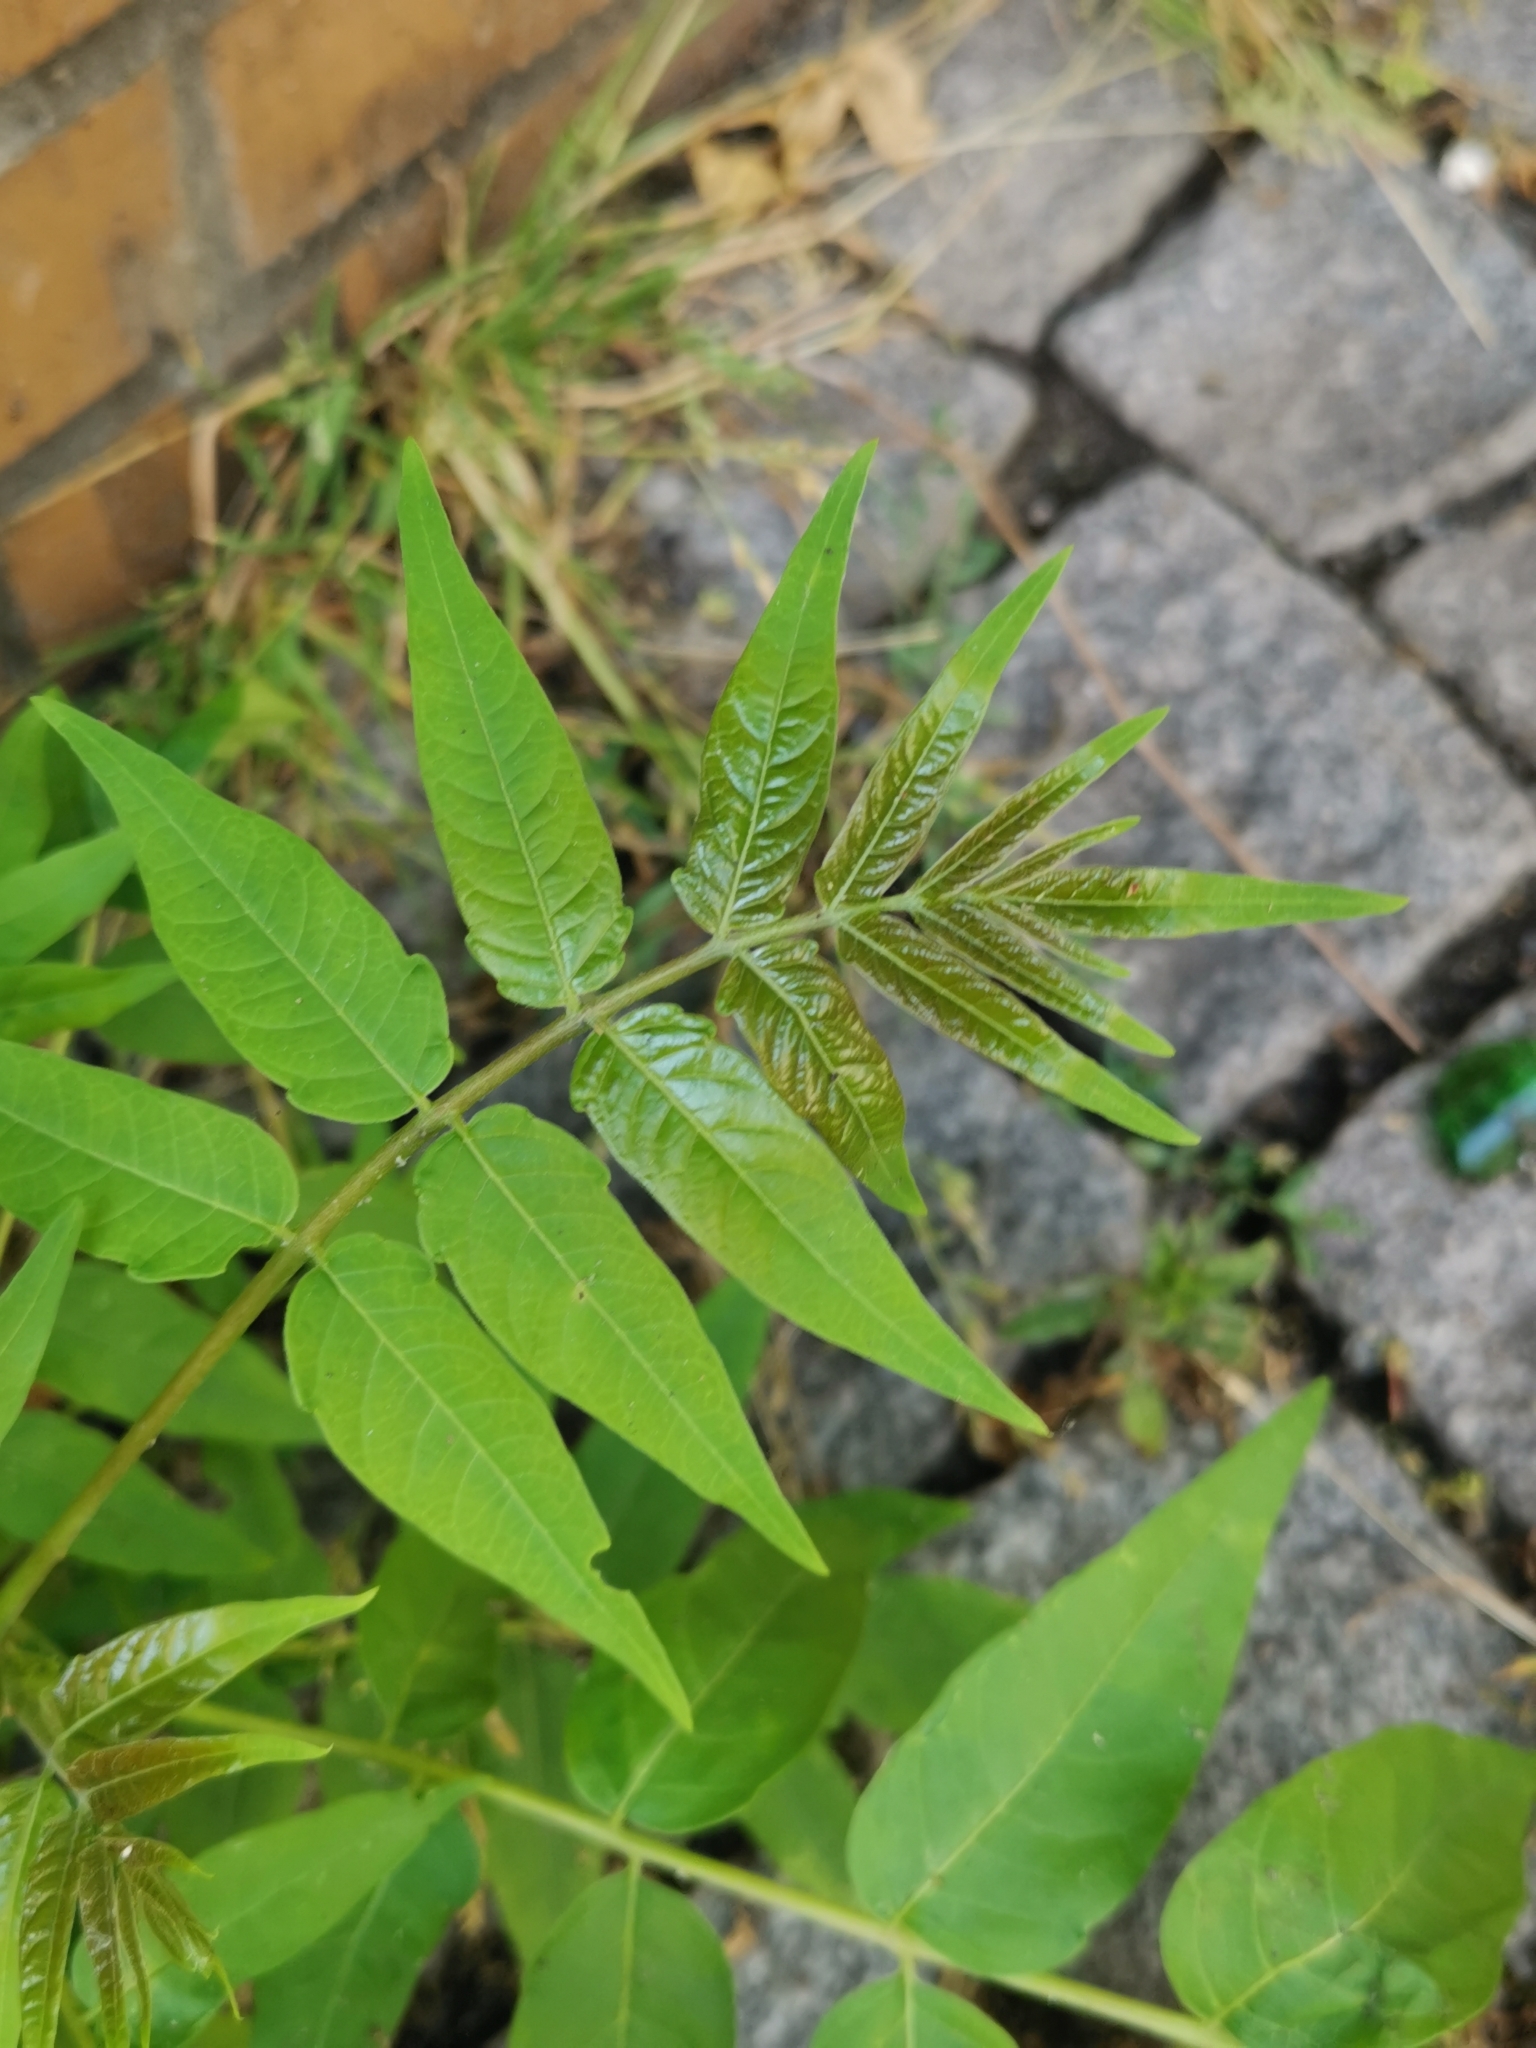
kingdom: Plantae
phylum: Tracheophyta
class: Magnoliopsida
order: Sapindales
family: Simaroubaceae
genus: Ailanthus
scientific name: Ailanthus altissima
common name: Tree-of-heaven
